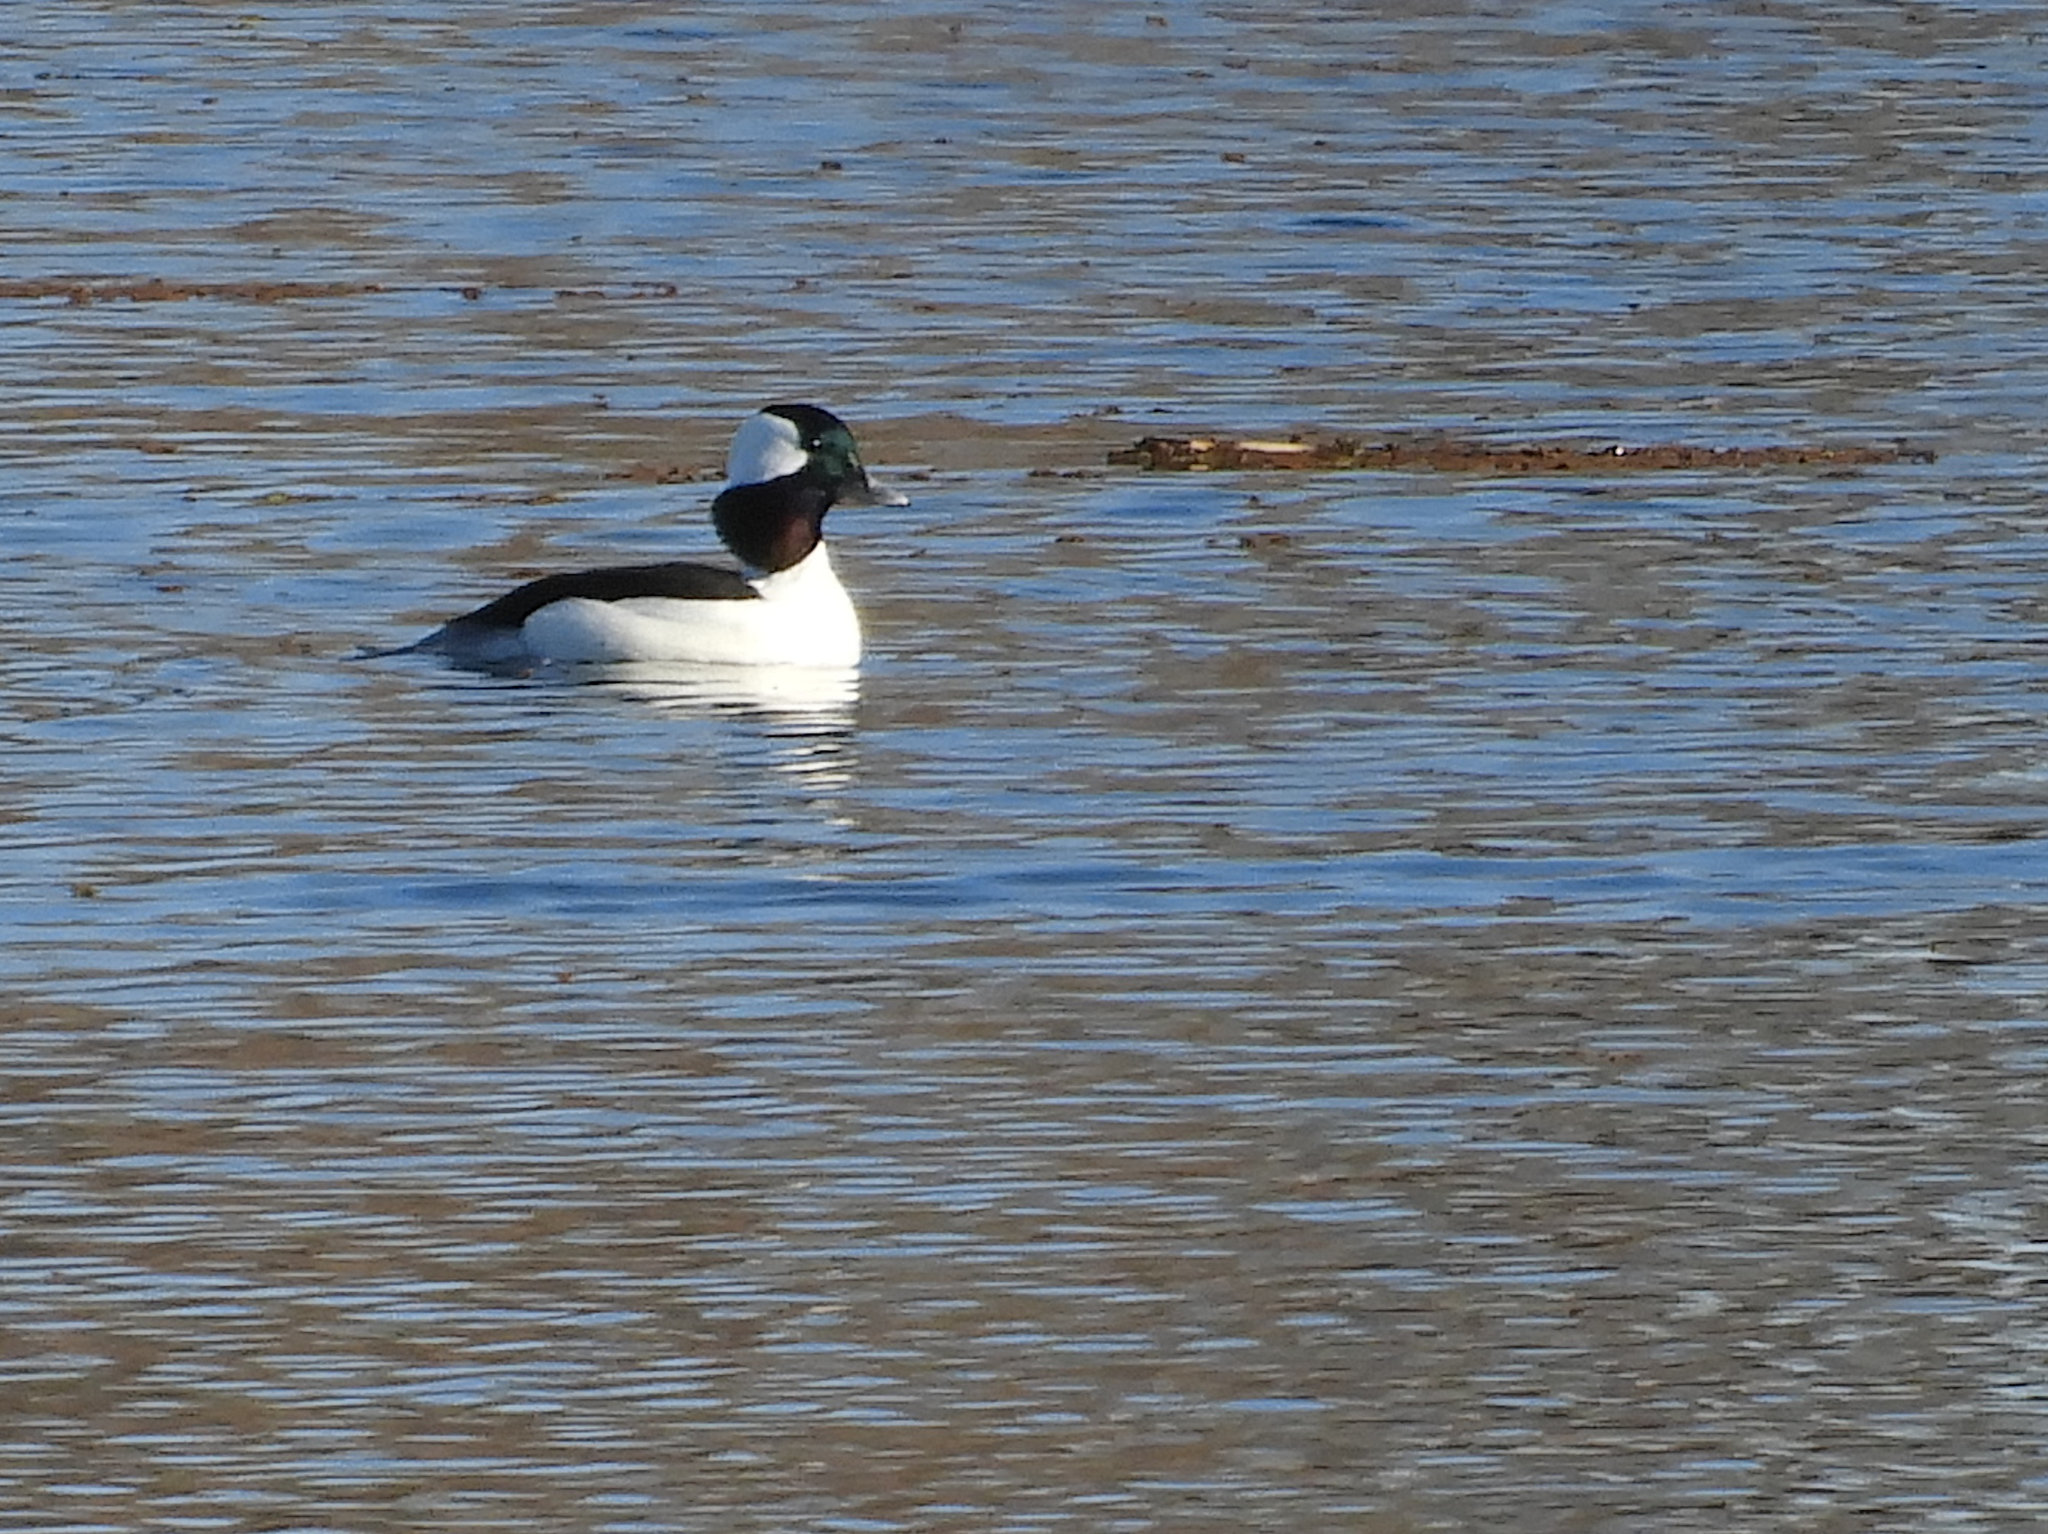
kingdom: Animalia
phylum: Chordata
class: Aves
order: Anseriformes
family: Anatidae
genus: Bucephala
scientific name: Bucephala albeola
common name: Bufflehead
